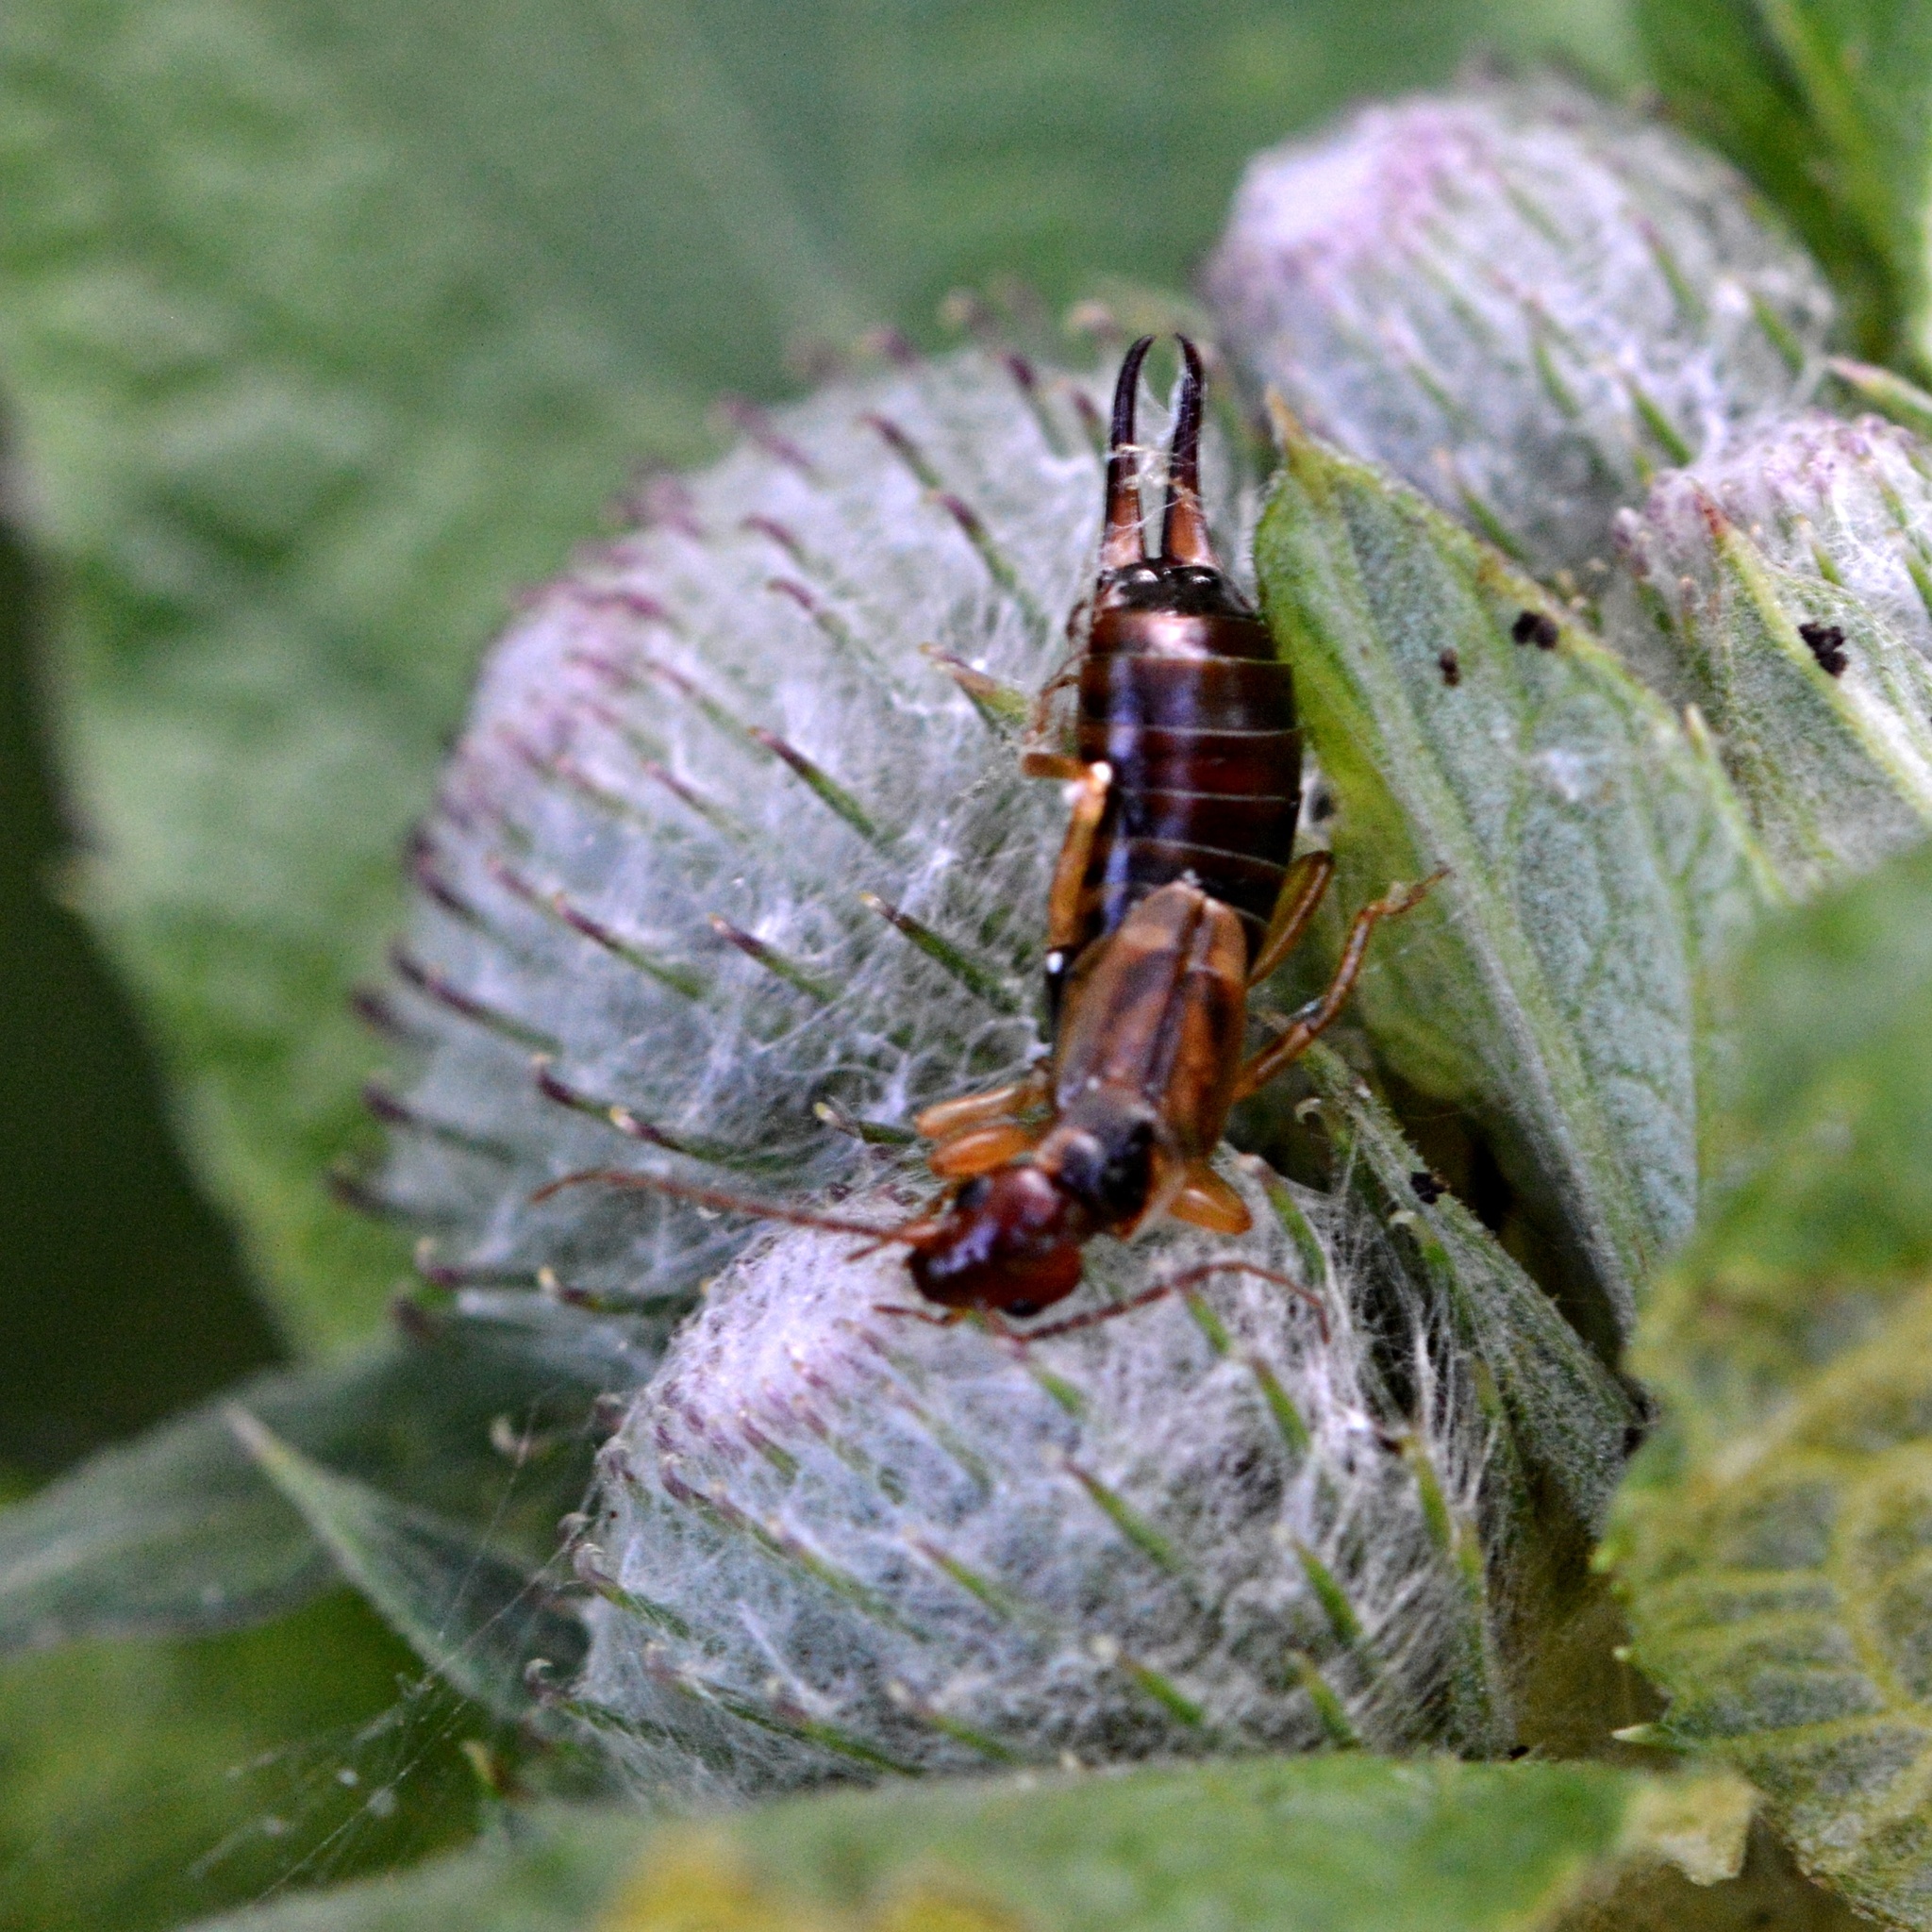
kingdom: Animalia
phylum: Arthropoda
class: Insecta
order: Dermaptera
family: Forficulidae
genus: Forficula
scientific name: Forficula
